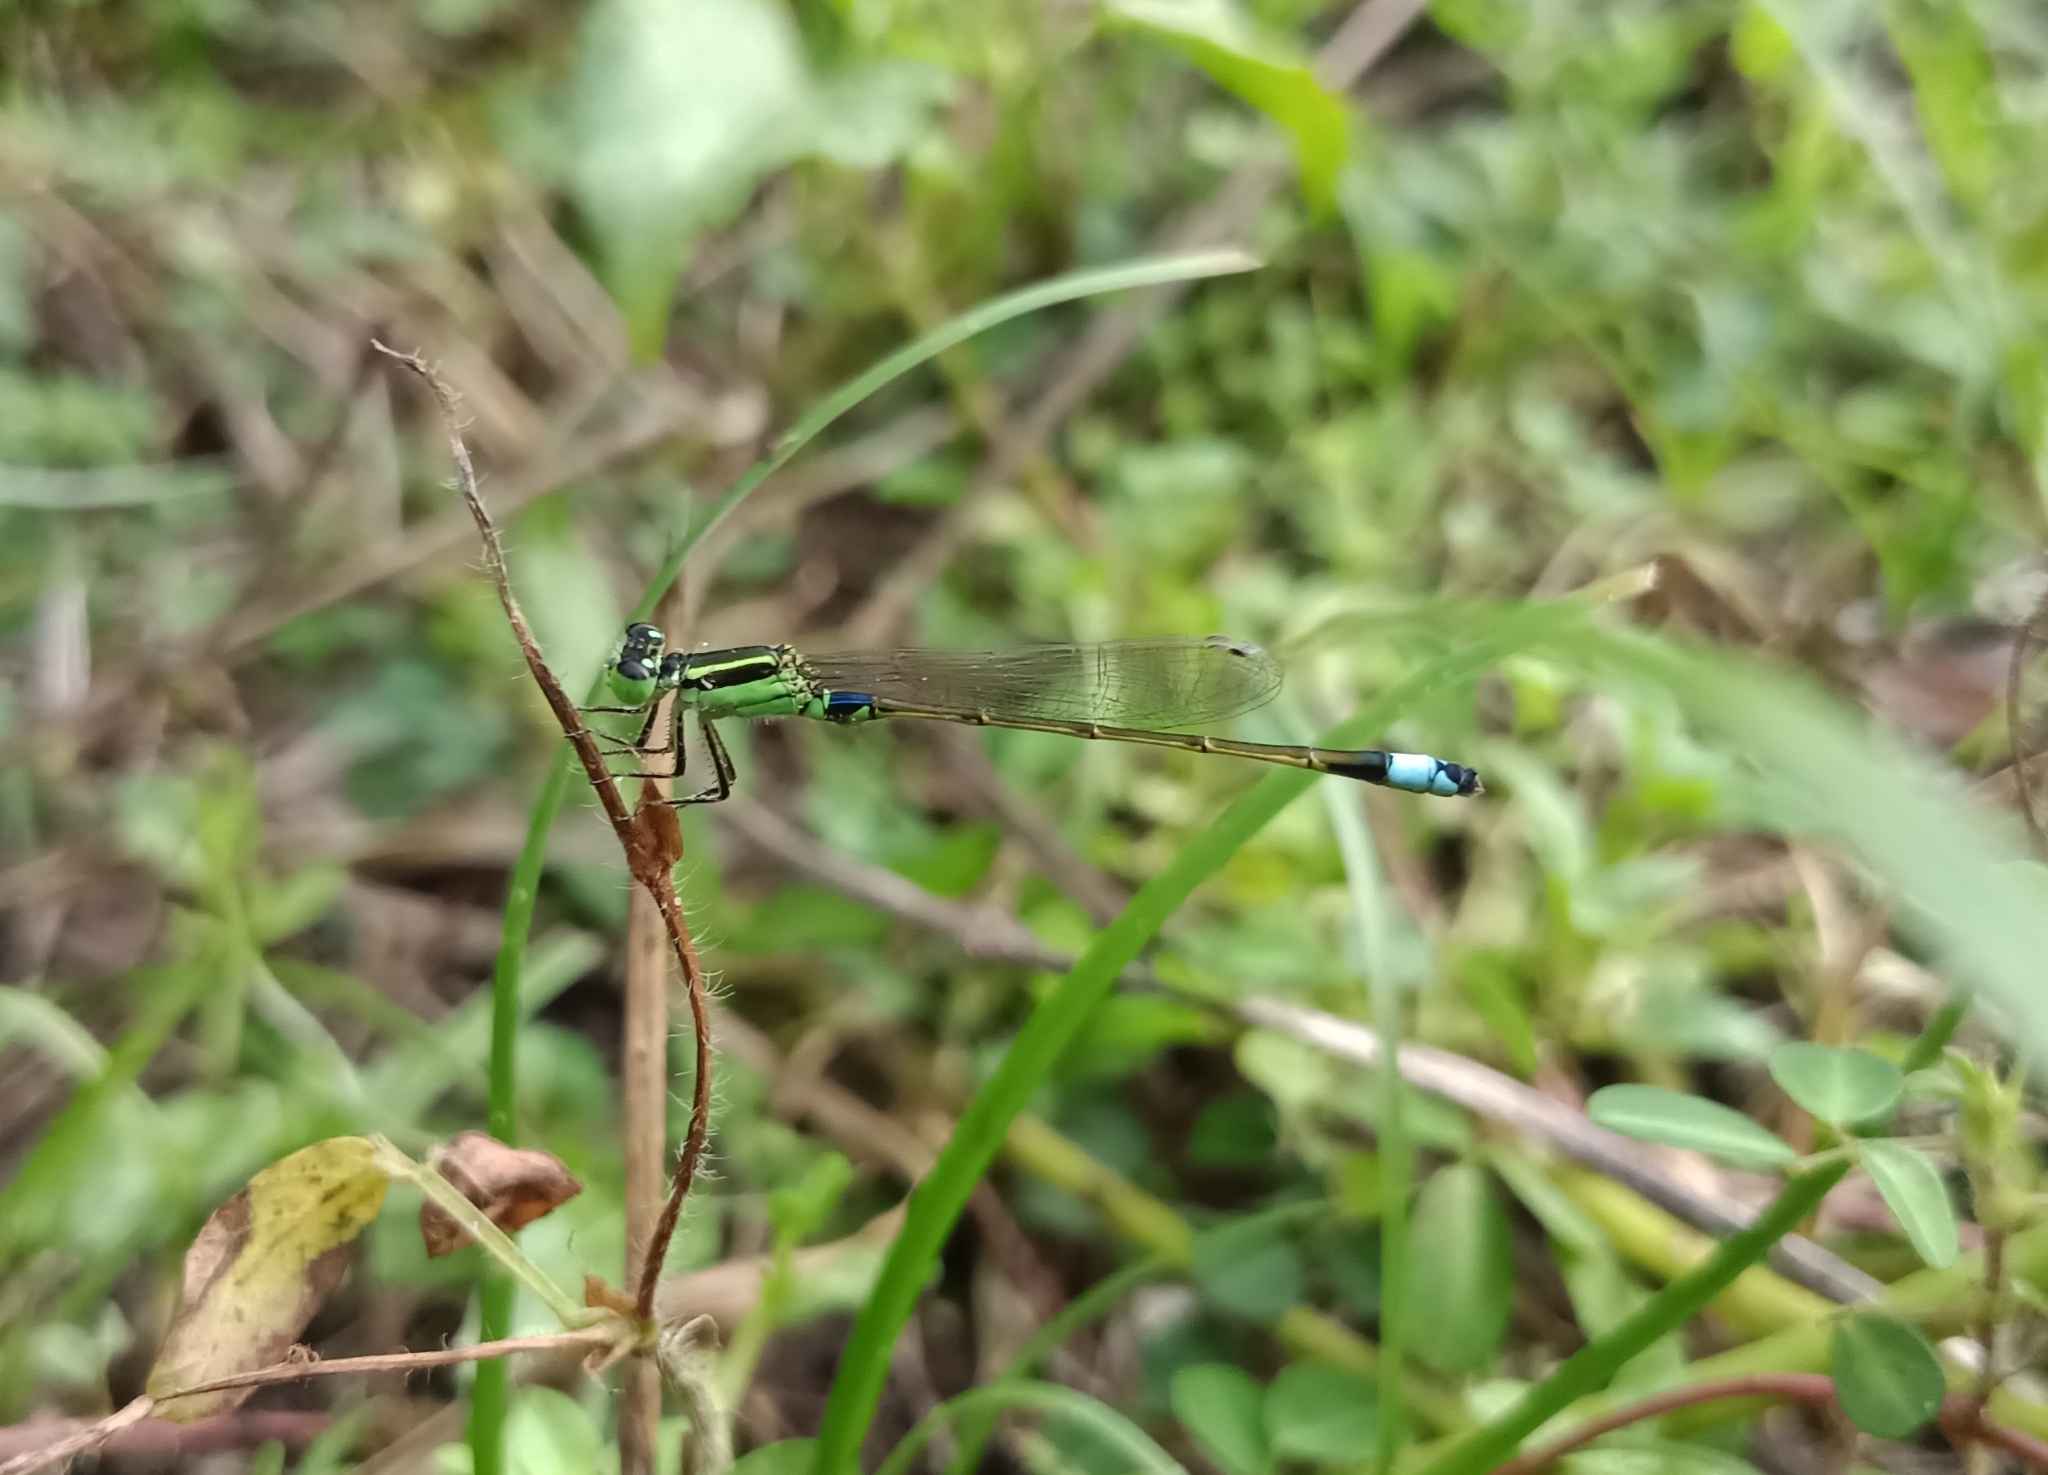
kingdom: Animalia
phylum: Arthropoda
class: Insecta
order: Odonata
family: Coenagrionidae
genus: Ischnura
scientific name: Ischnura senegalensis
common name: Tropical bluetail
